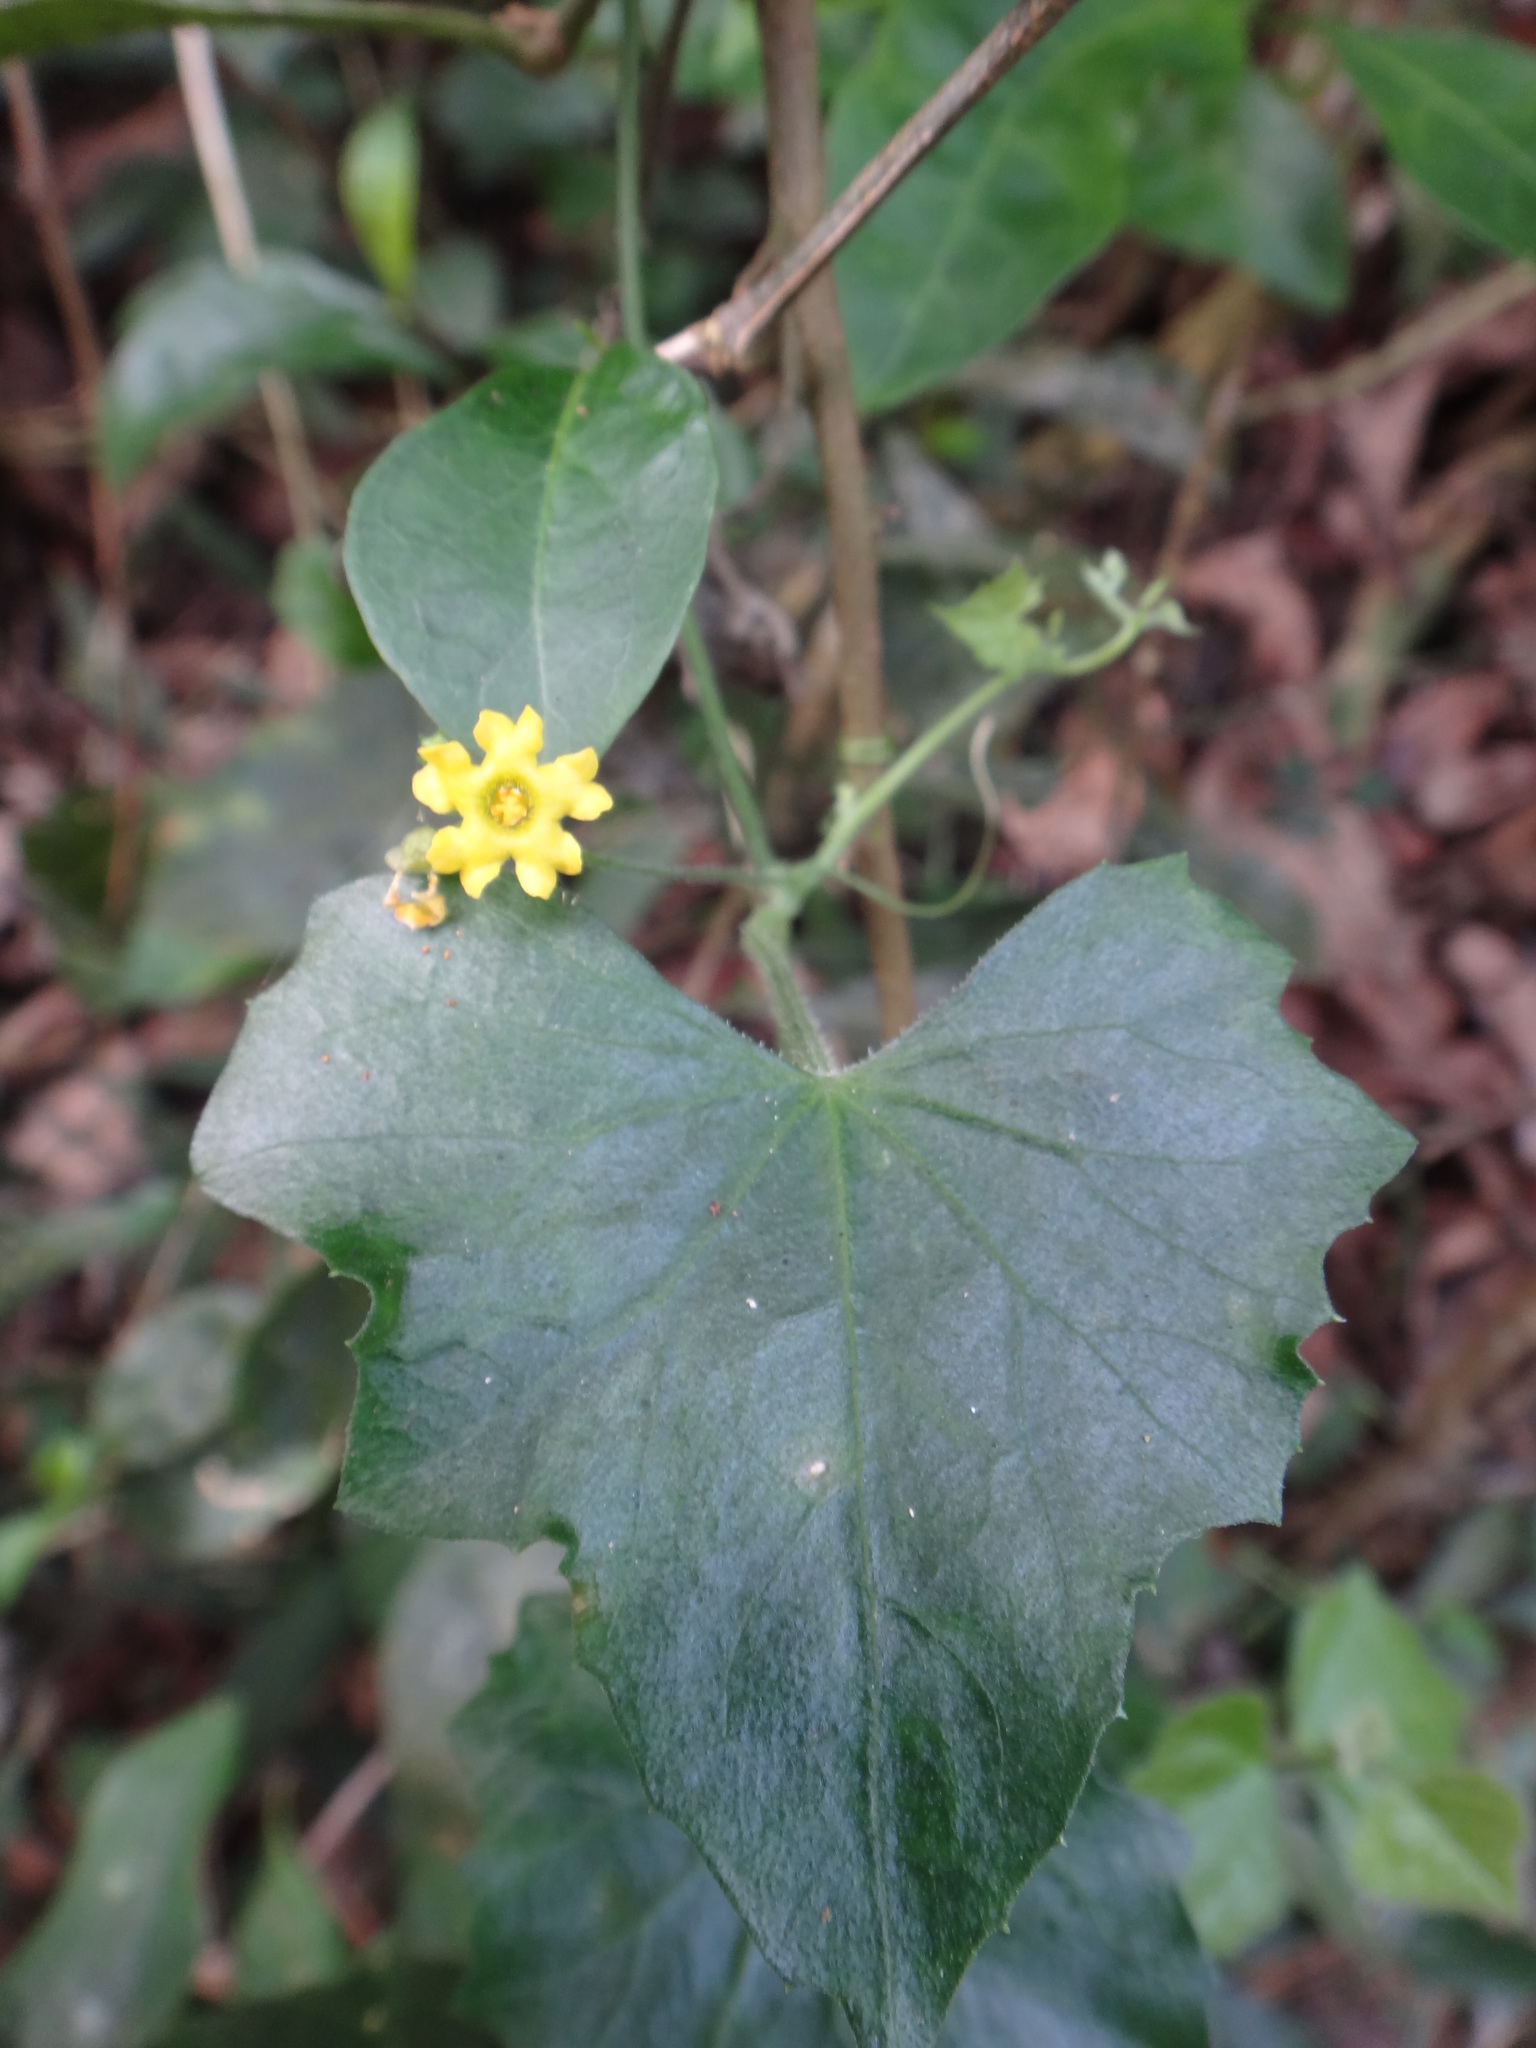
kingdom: Plantae
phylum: Tracheophyta
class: Magnoliopsida
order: Cucurbitales
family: Cucurbitaceae
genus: Melothria
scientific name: Melothria pendula
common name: Creeping-cucumber
